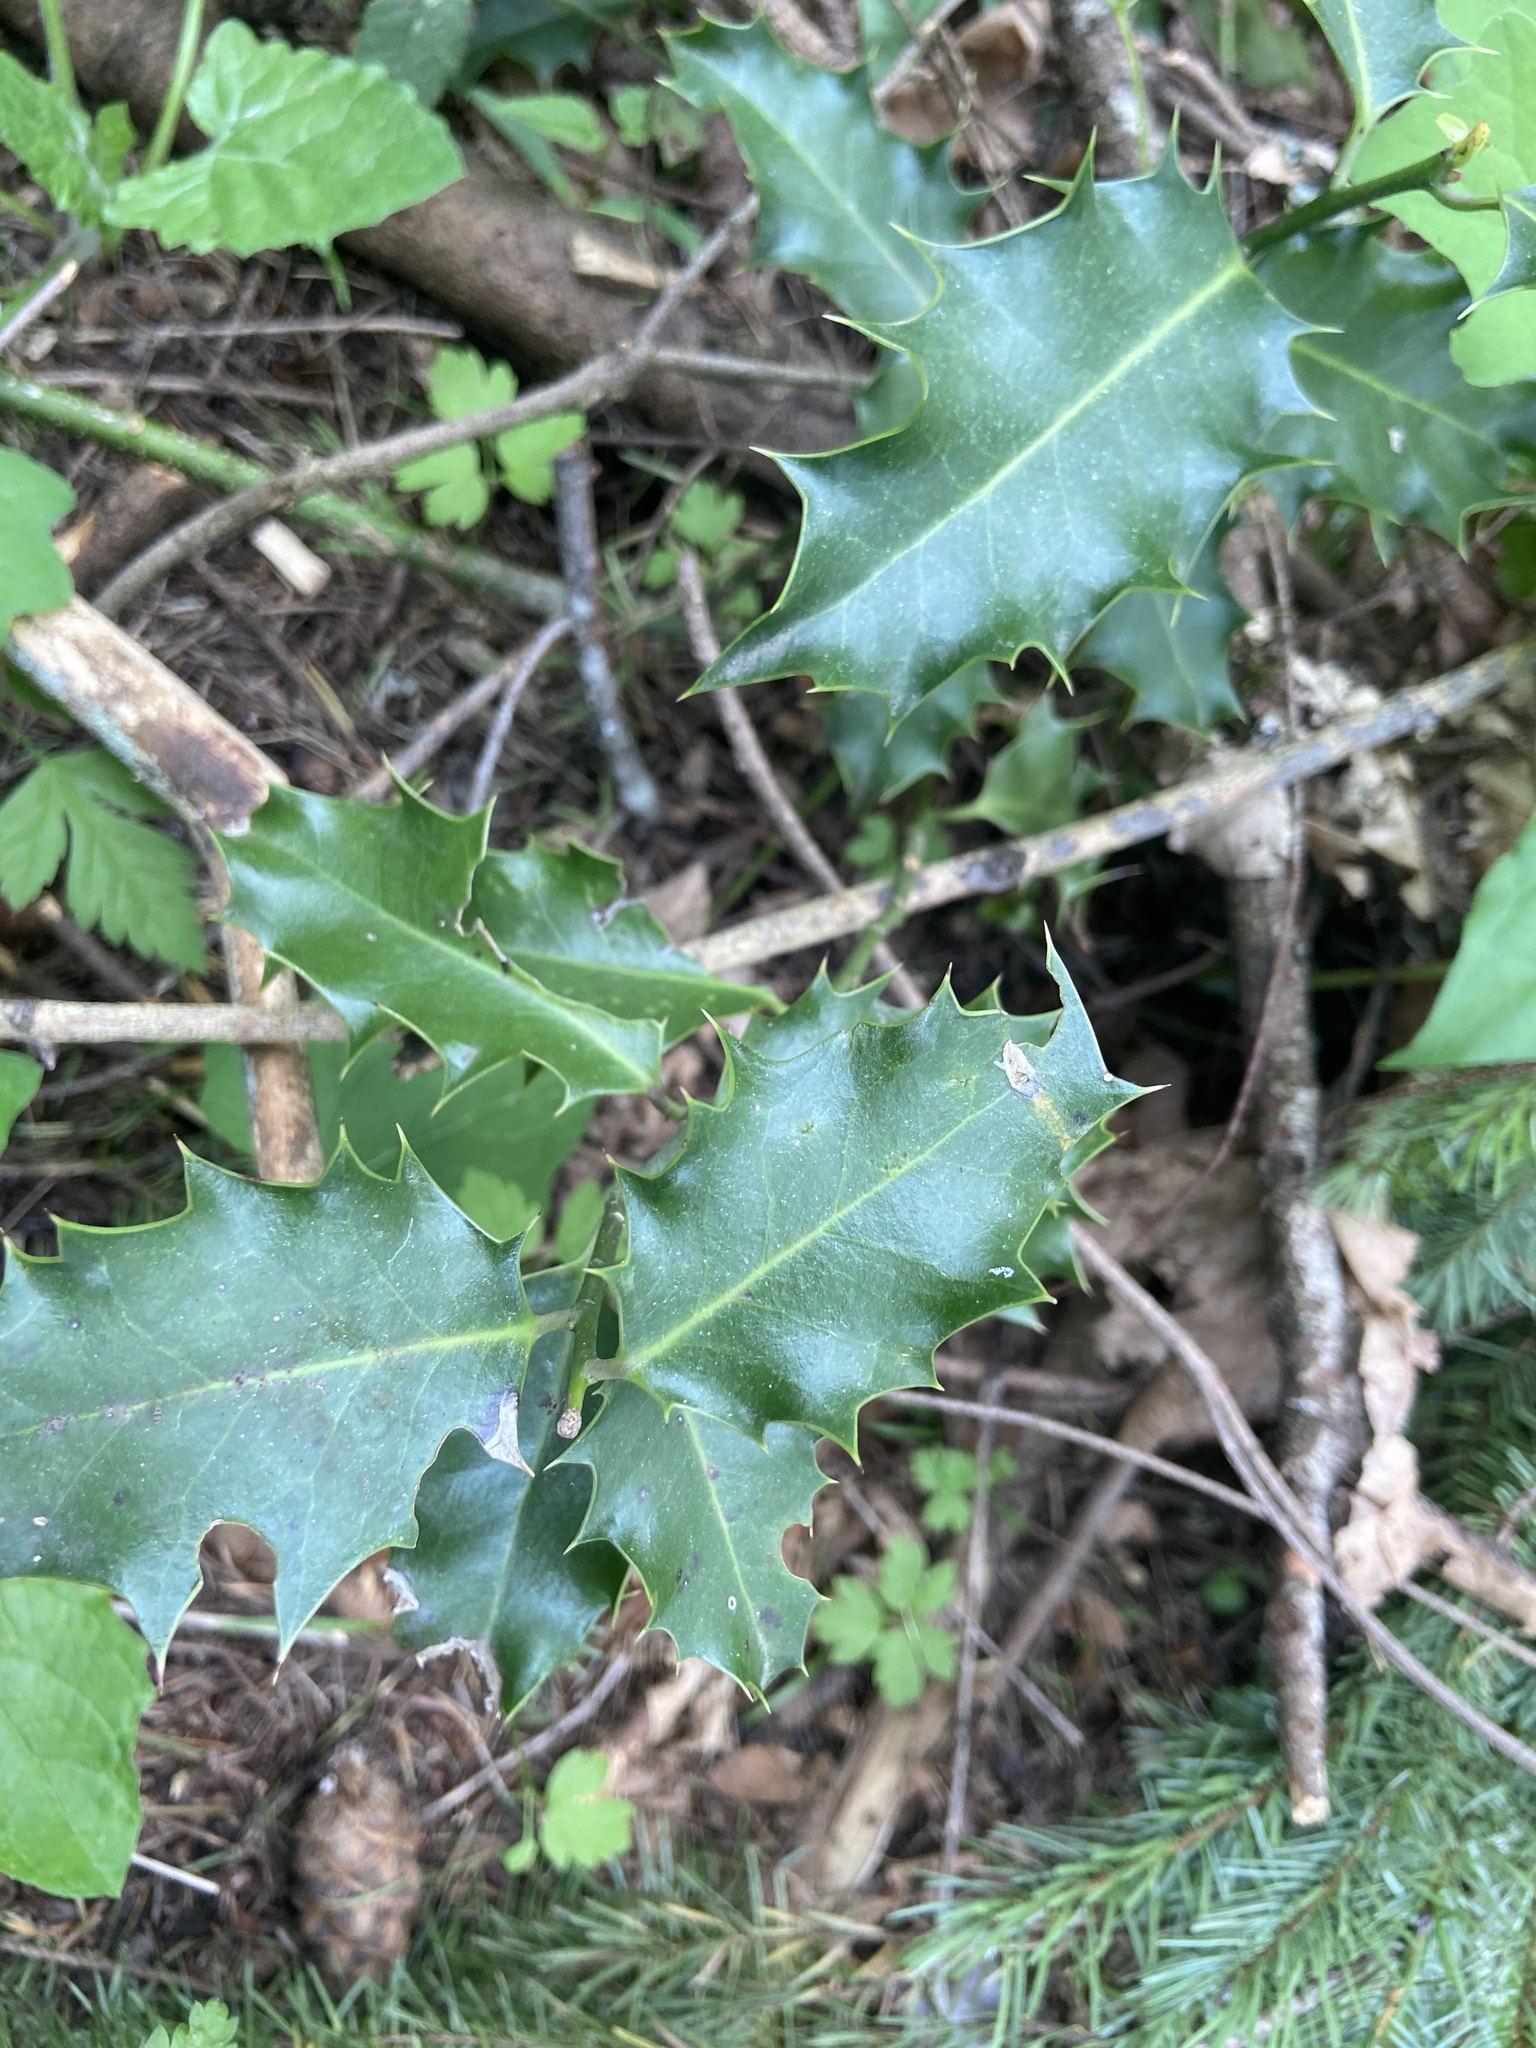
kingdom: Plantae
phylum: Tracheophyta
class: Magnoliopsida
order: Aquifoliales
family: Aquifoliaceae
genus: Ilex
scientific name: Ilex aquifolium
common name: English holly
